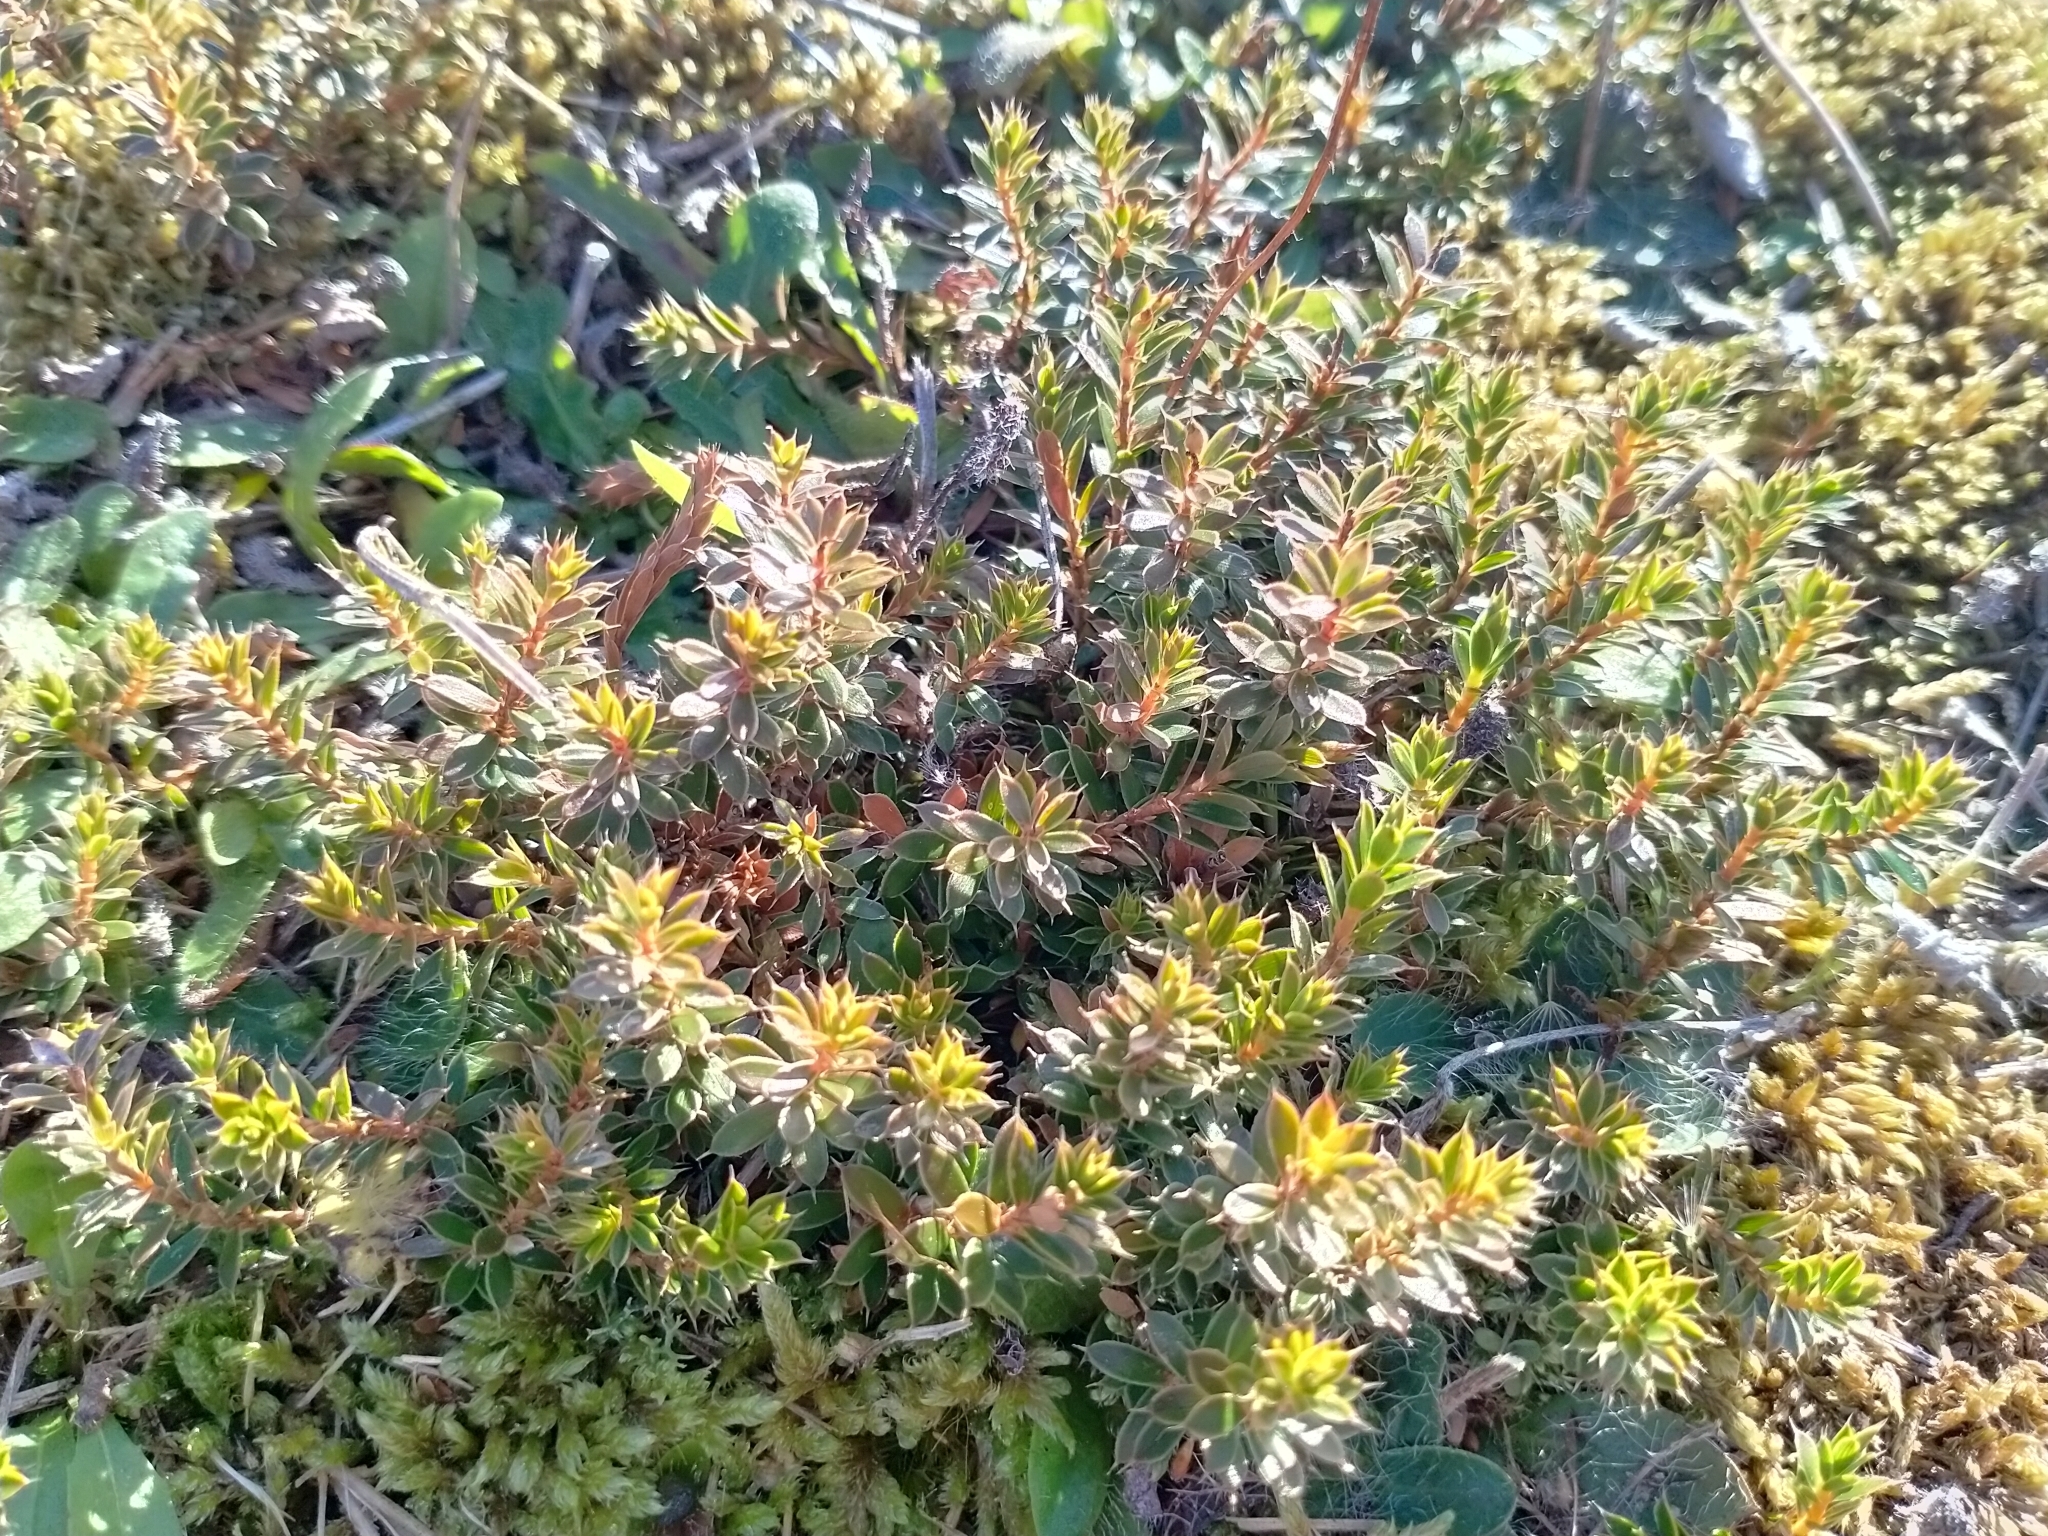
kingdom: Plantae
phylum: Tracheophyta
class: Magnoliopsida
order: Ericales
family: Ericaceae
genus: Styphelia
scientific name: Styphelia nesophila
